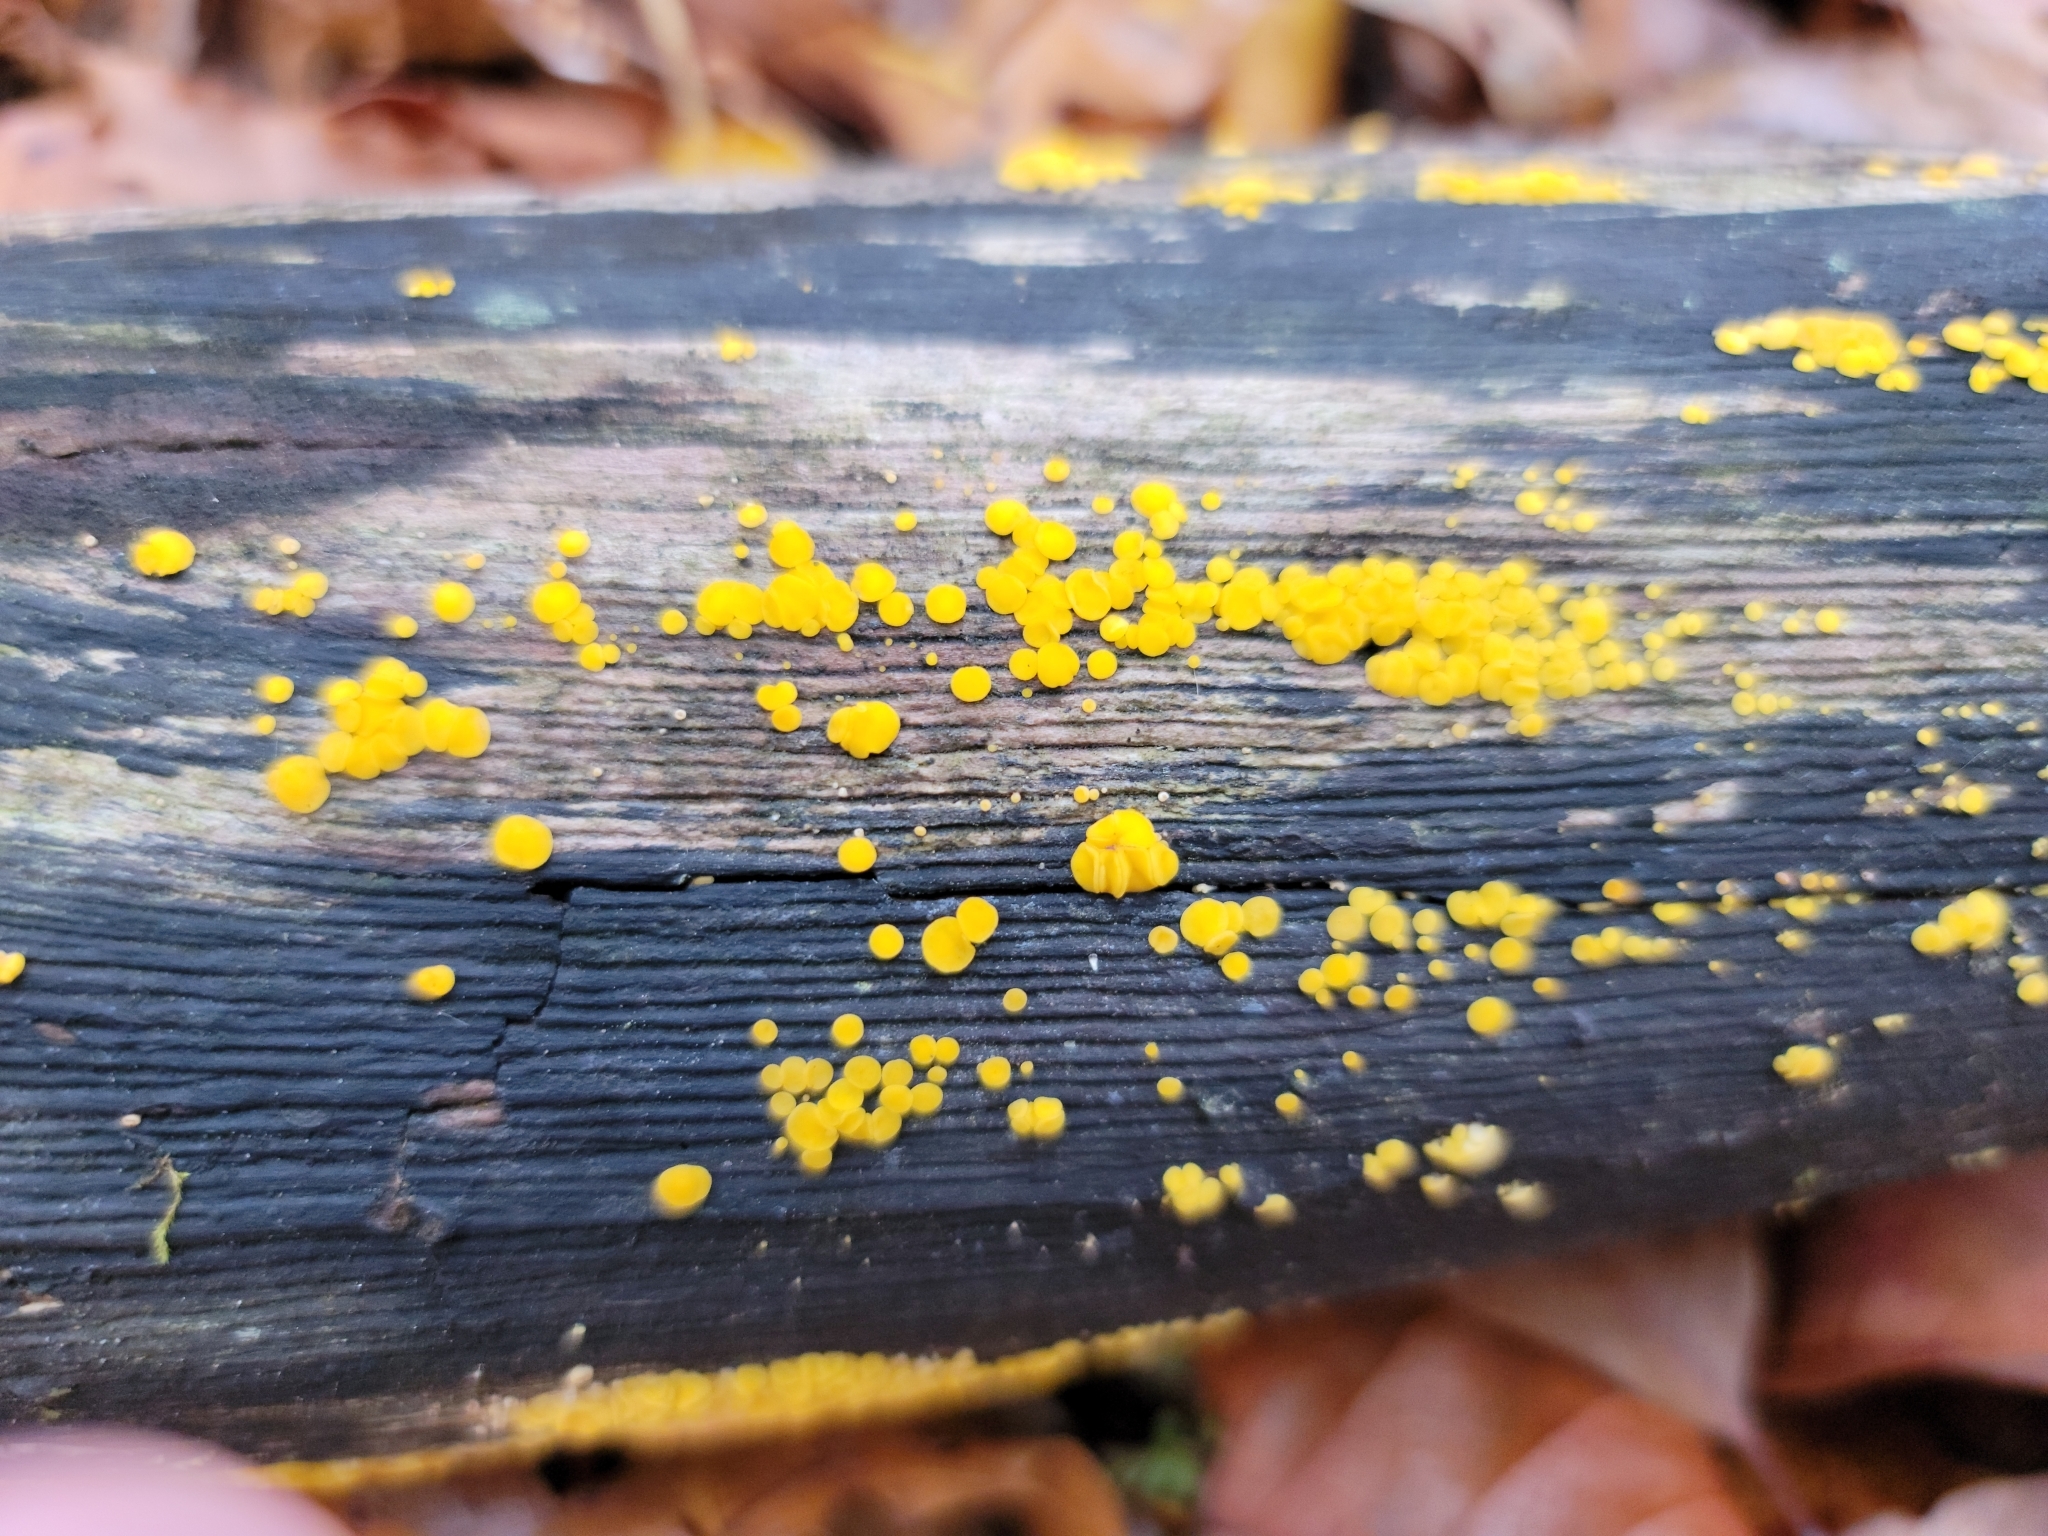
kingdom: Fungi
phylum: Ascomycota
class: Leotiomycetes
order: Helotiales
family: Pezizellaceae
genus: Calycina
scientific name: Calycina citrina
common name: Yellow fairy cups
